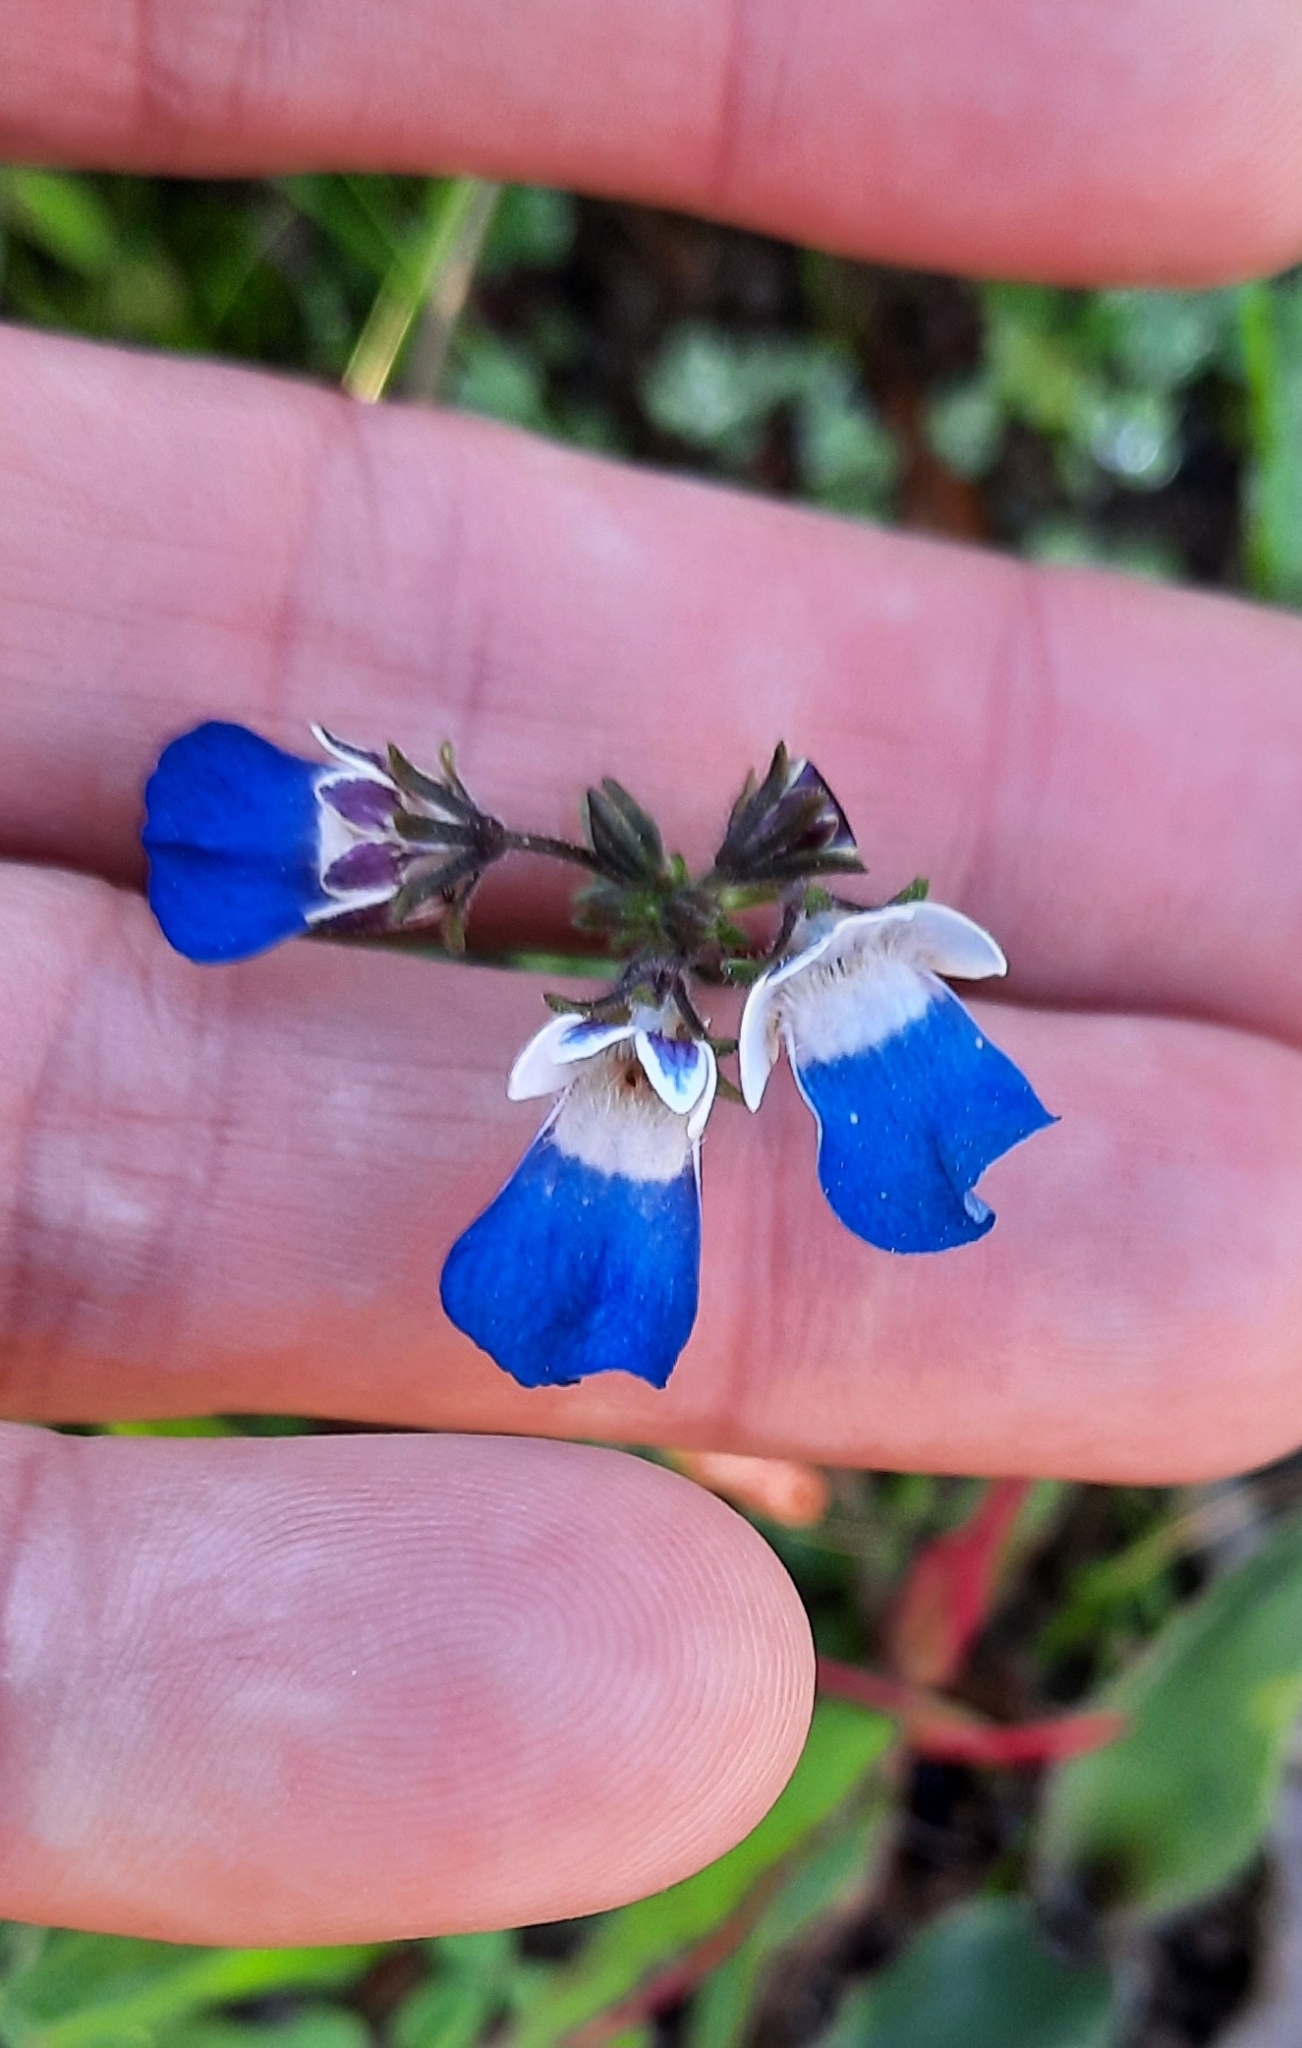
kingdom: Plantae
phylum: Tracheophyta
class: Magnoliopsida
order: Lamiales
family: Scrophulariaceae
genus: Nemesia
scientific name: Nemesia barbata
